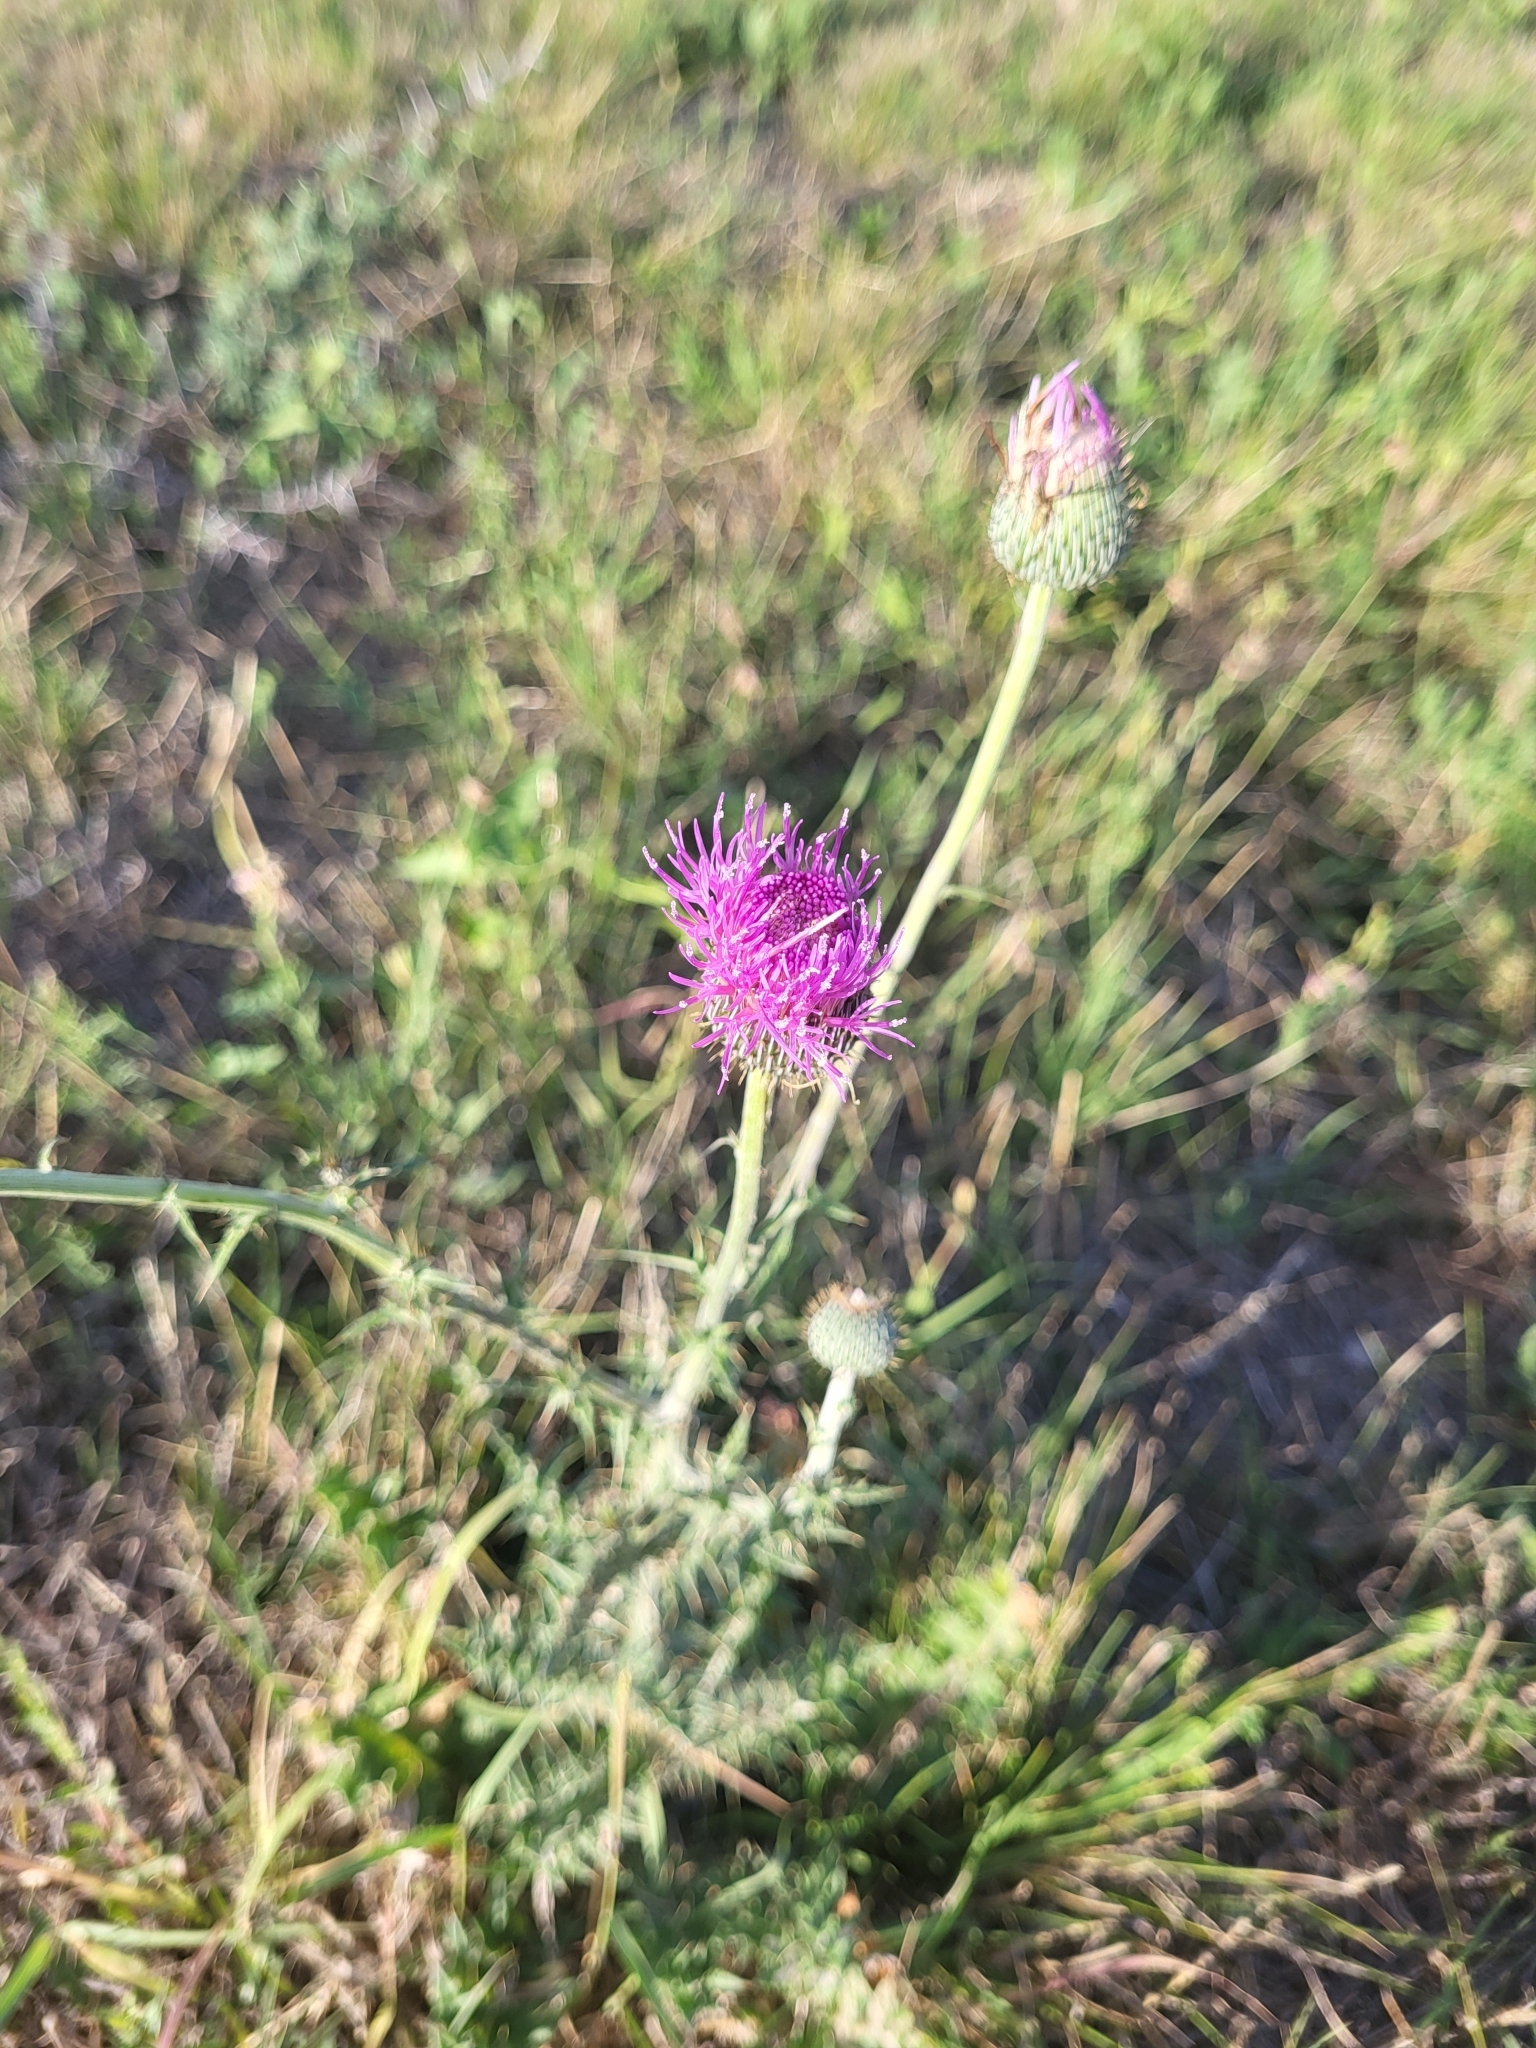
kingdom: Plantae
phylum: Tracheophyta
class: Magnoliopsida
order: Asterales
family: Asteraceae
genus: Cirsium
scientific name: Cirsium texanum
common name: Texas purple thistle
